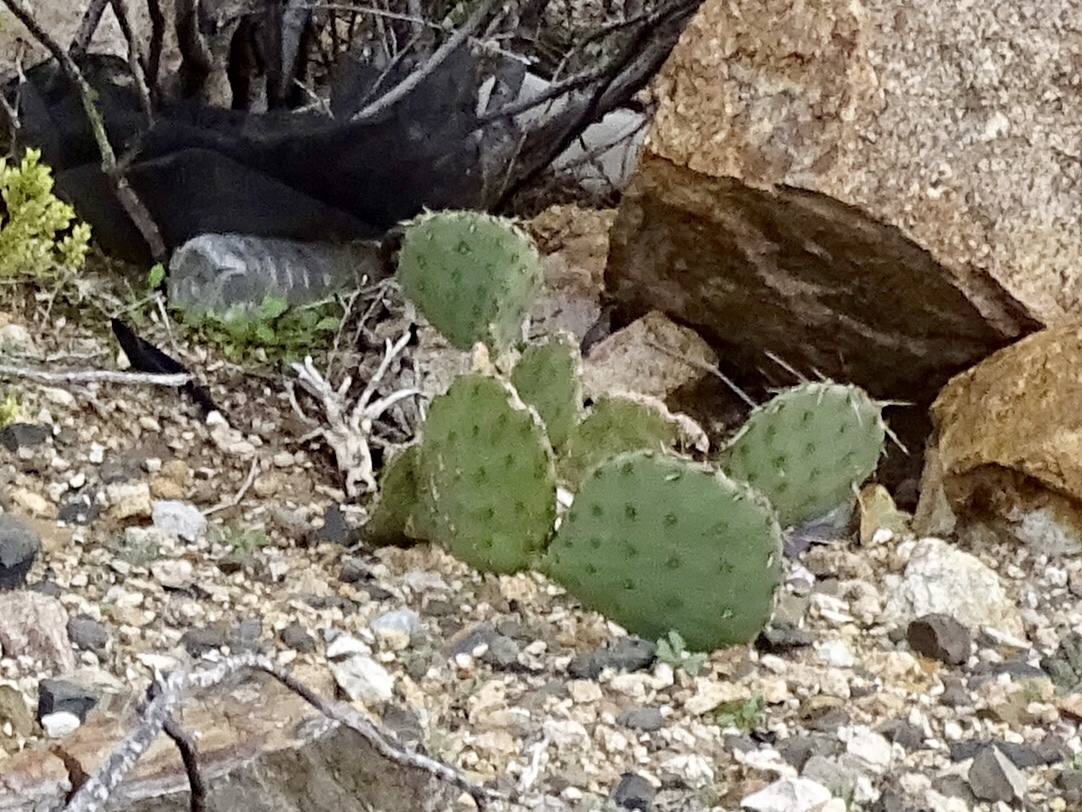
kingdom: Plantae
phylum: Tracheophyta
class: Magnoliopsida
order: Caryophyllales
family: Cactaceae
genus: Opuntia
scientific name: Opuntia phaeacantha
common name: New mexico prickly-pear
